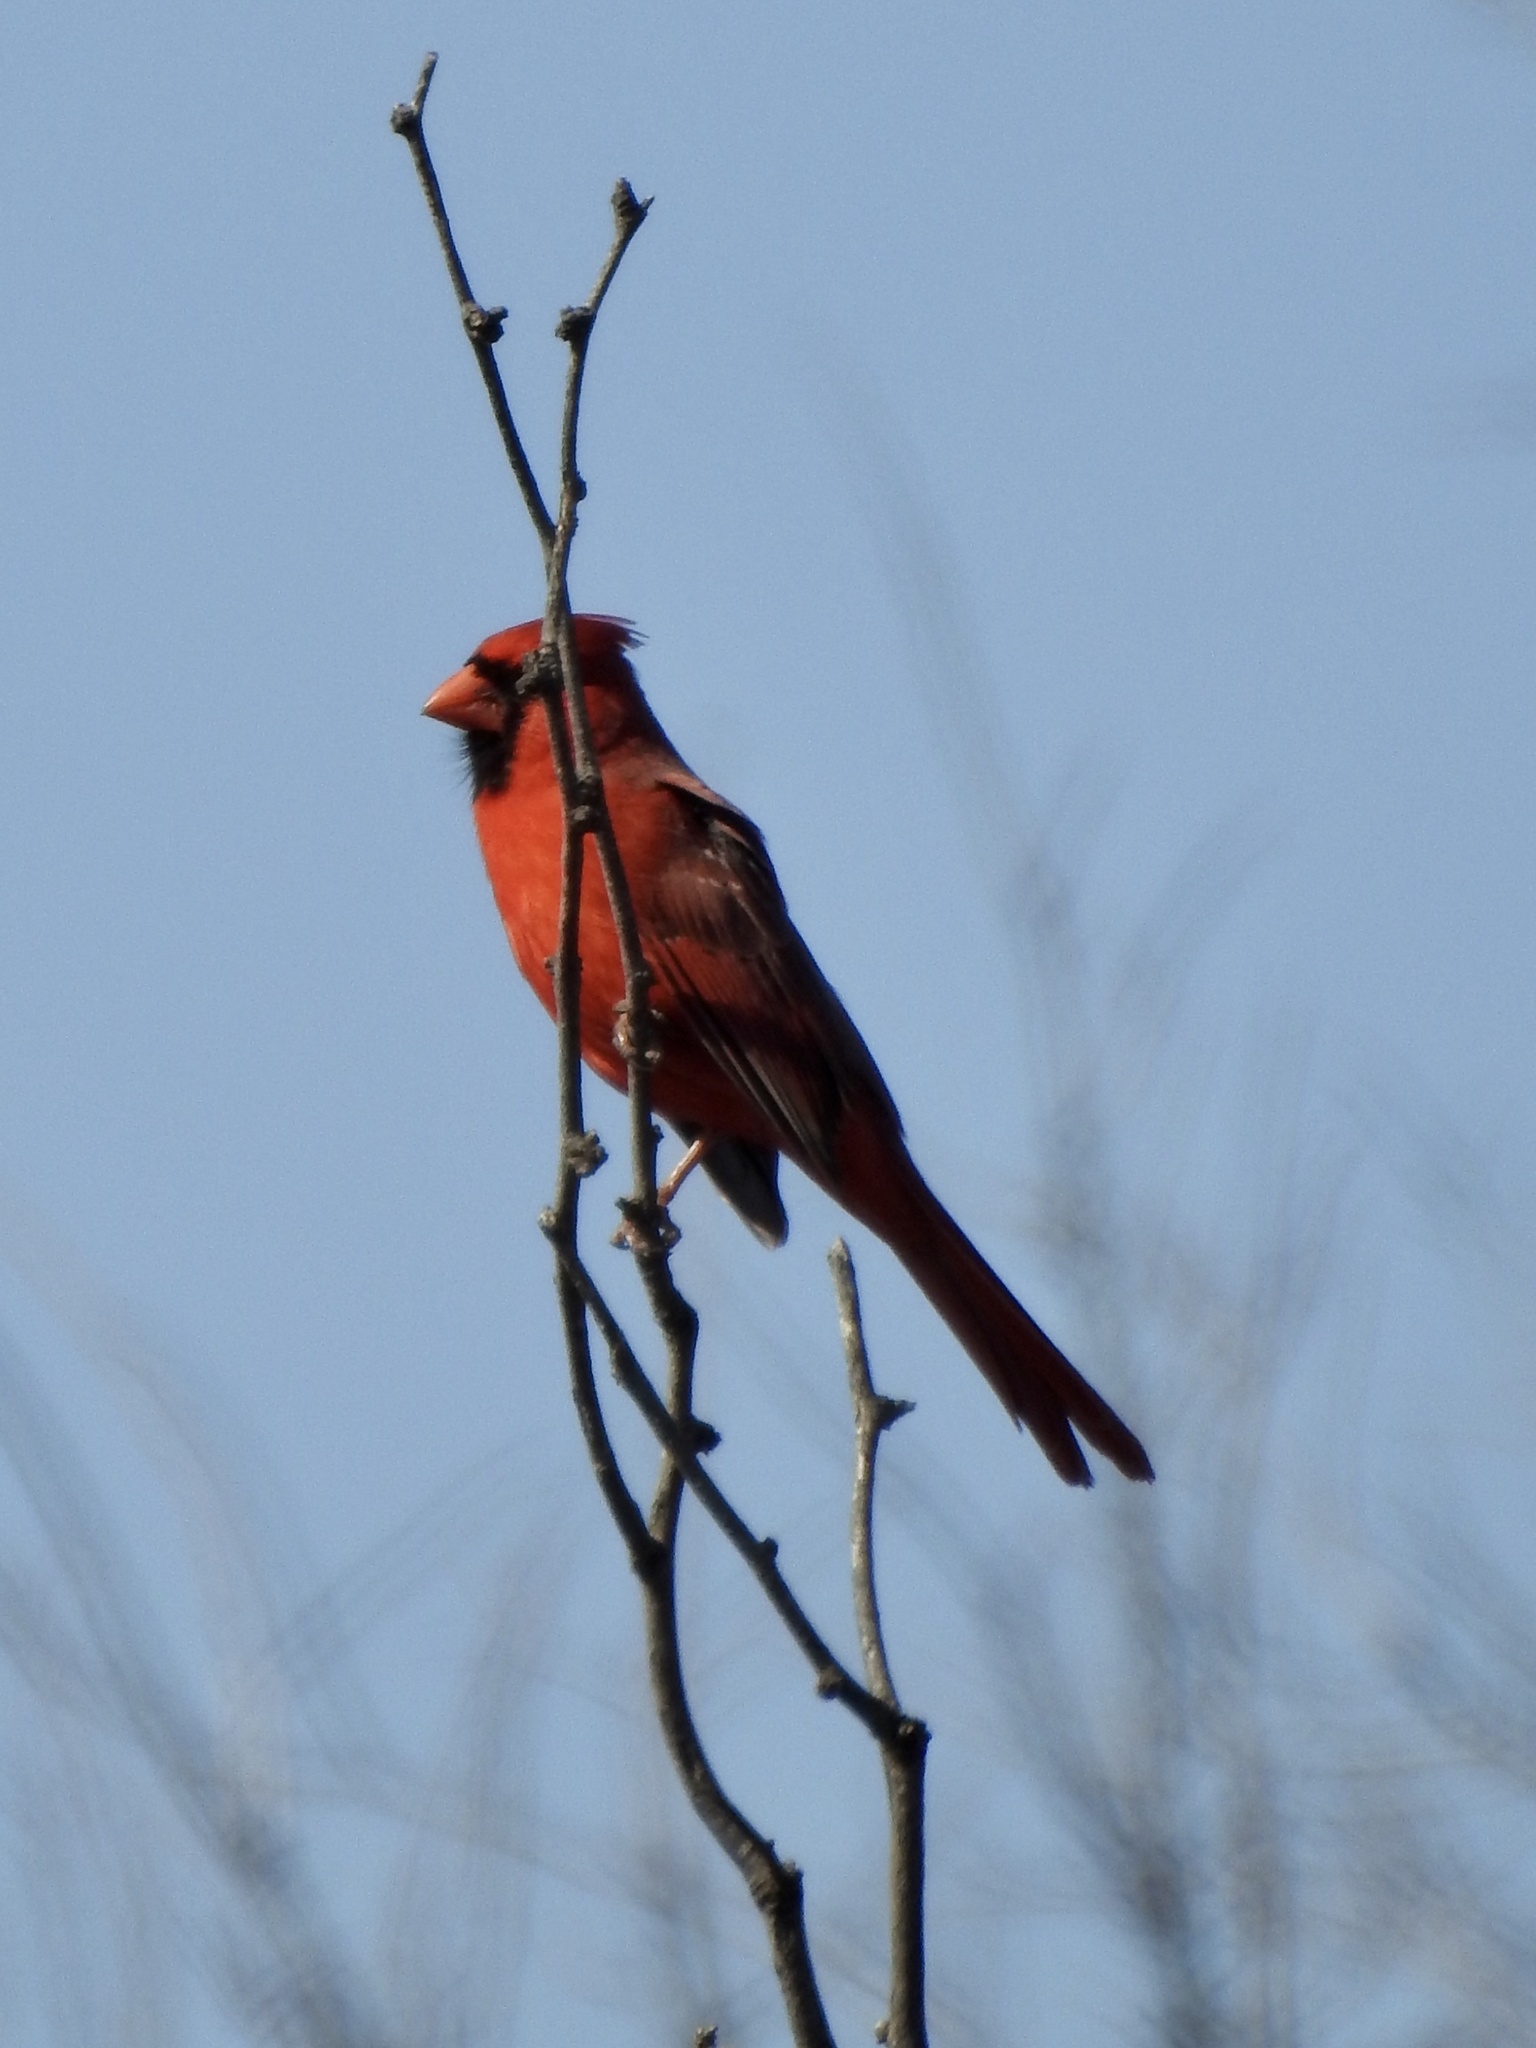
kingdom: Animalia
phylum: Chordata
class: Aves
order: Passeriformes
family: Cardinalidae
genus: Cardinalis
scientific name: Cardinalis cardinalis
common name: Northern cardinal
